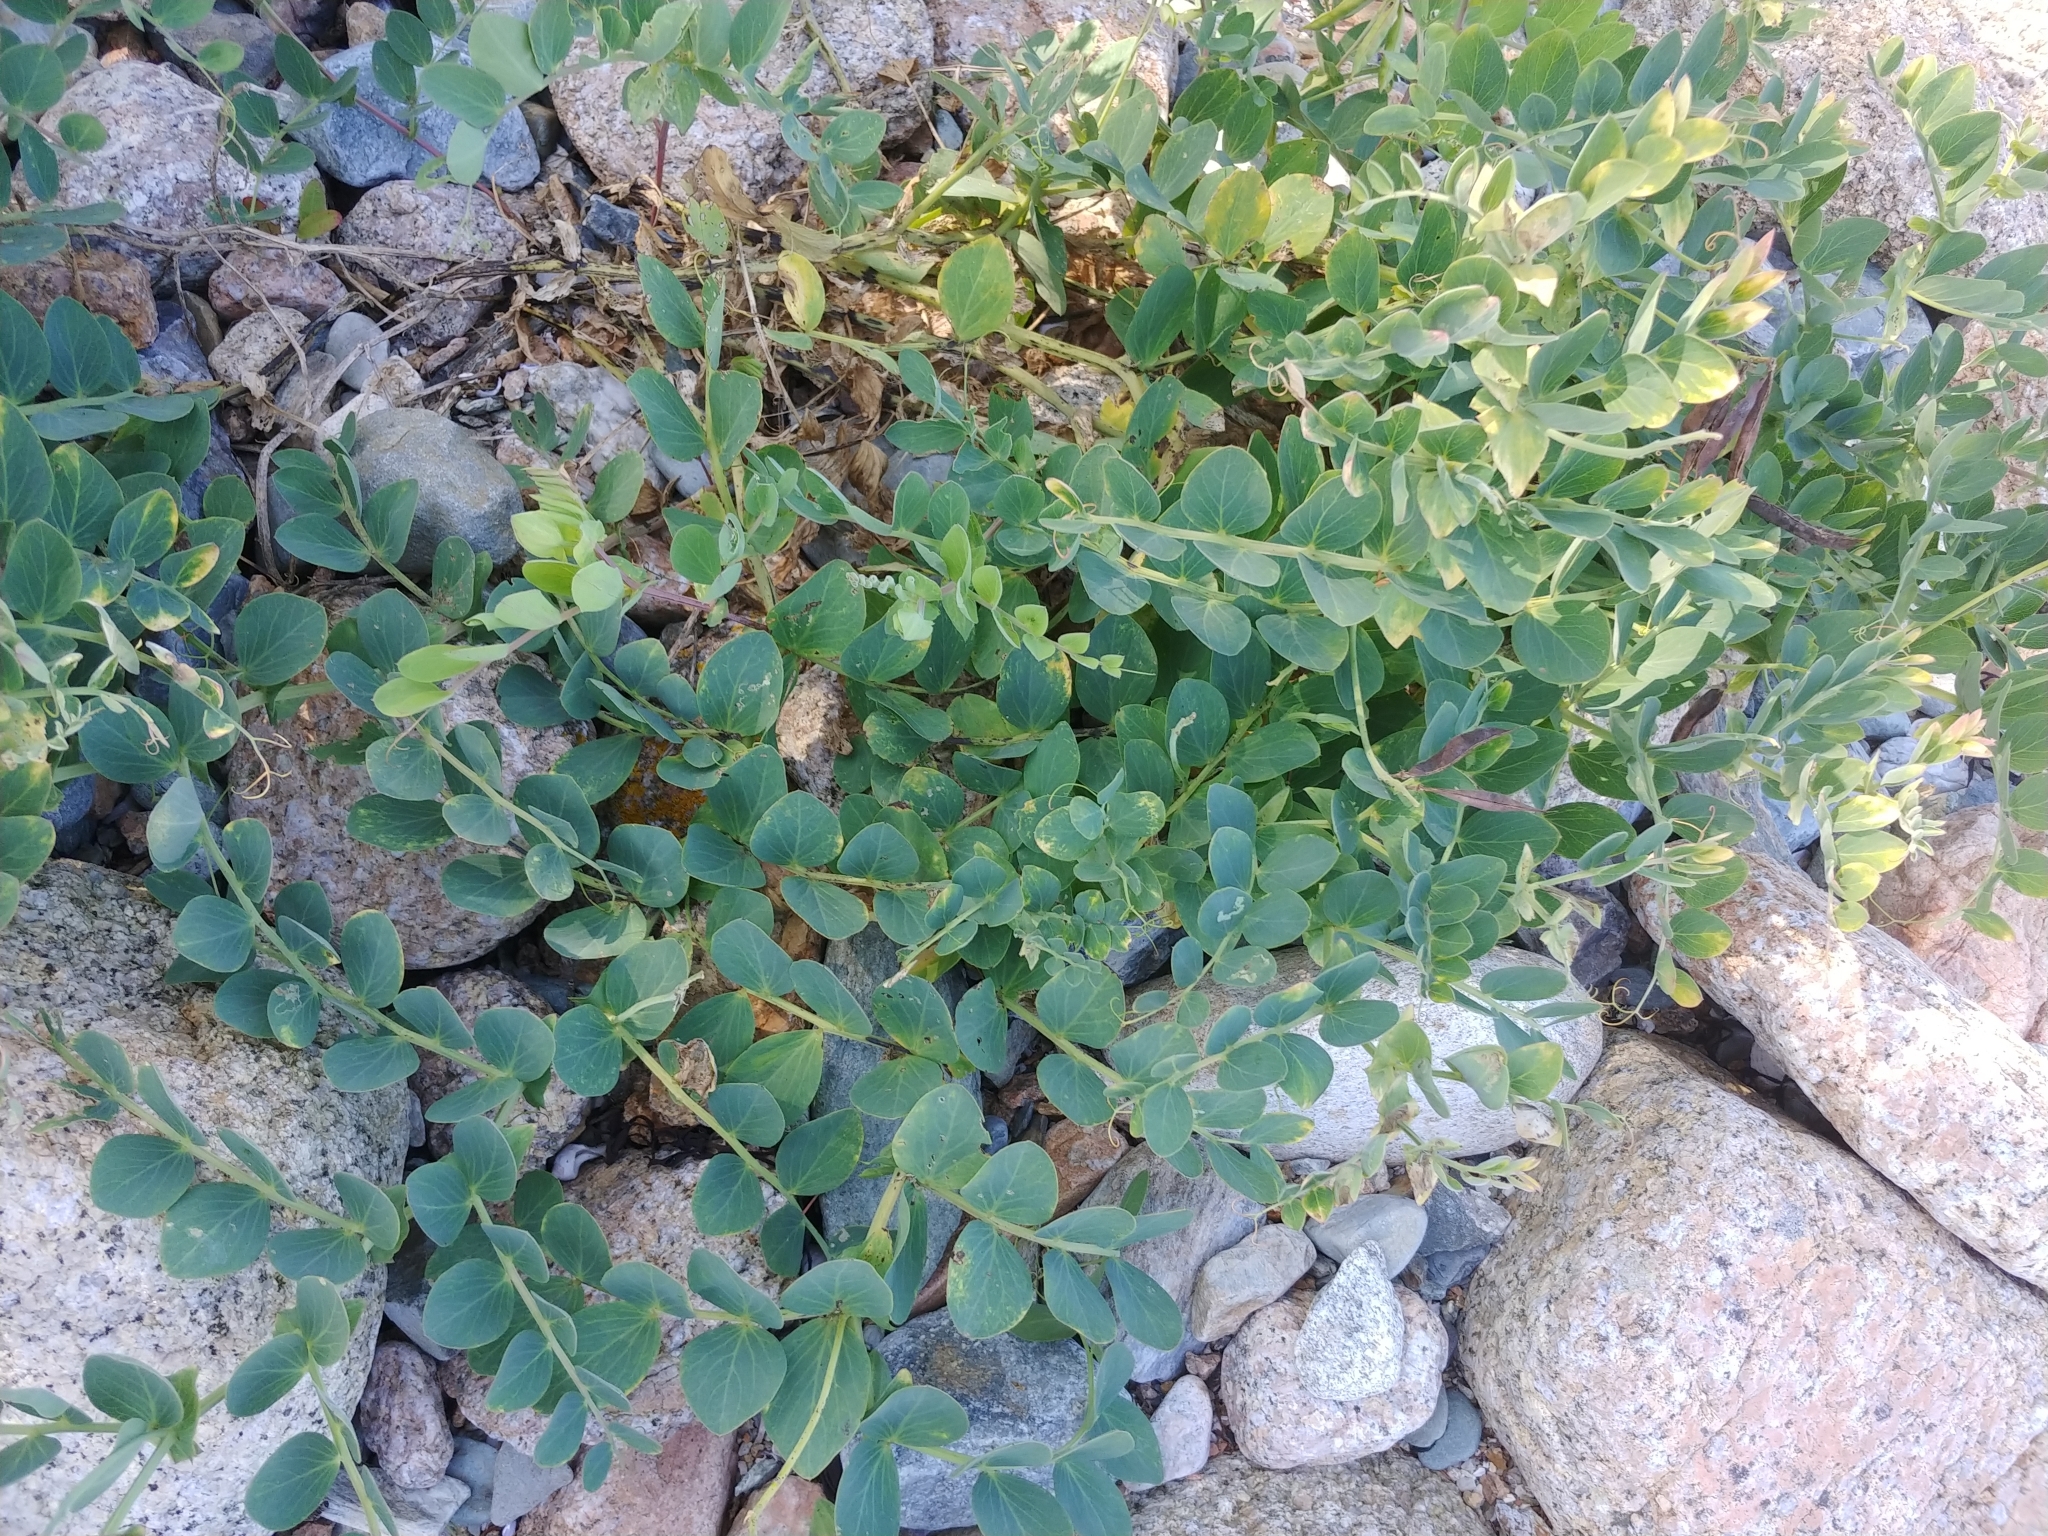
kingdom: Plantae
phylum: Tracheophyta
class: Magnoliopsida
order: Fabales
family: Fabaceae
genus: Lathyrus
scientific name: Lathyrus japonicus
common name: Sea pea
